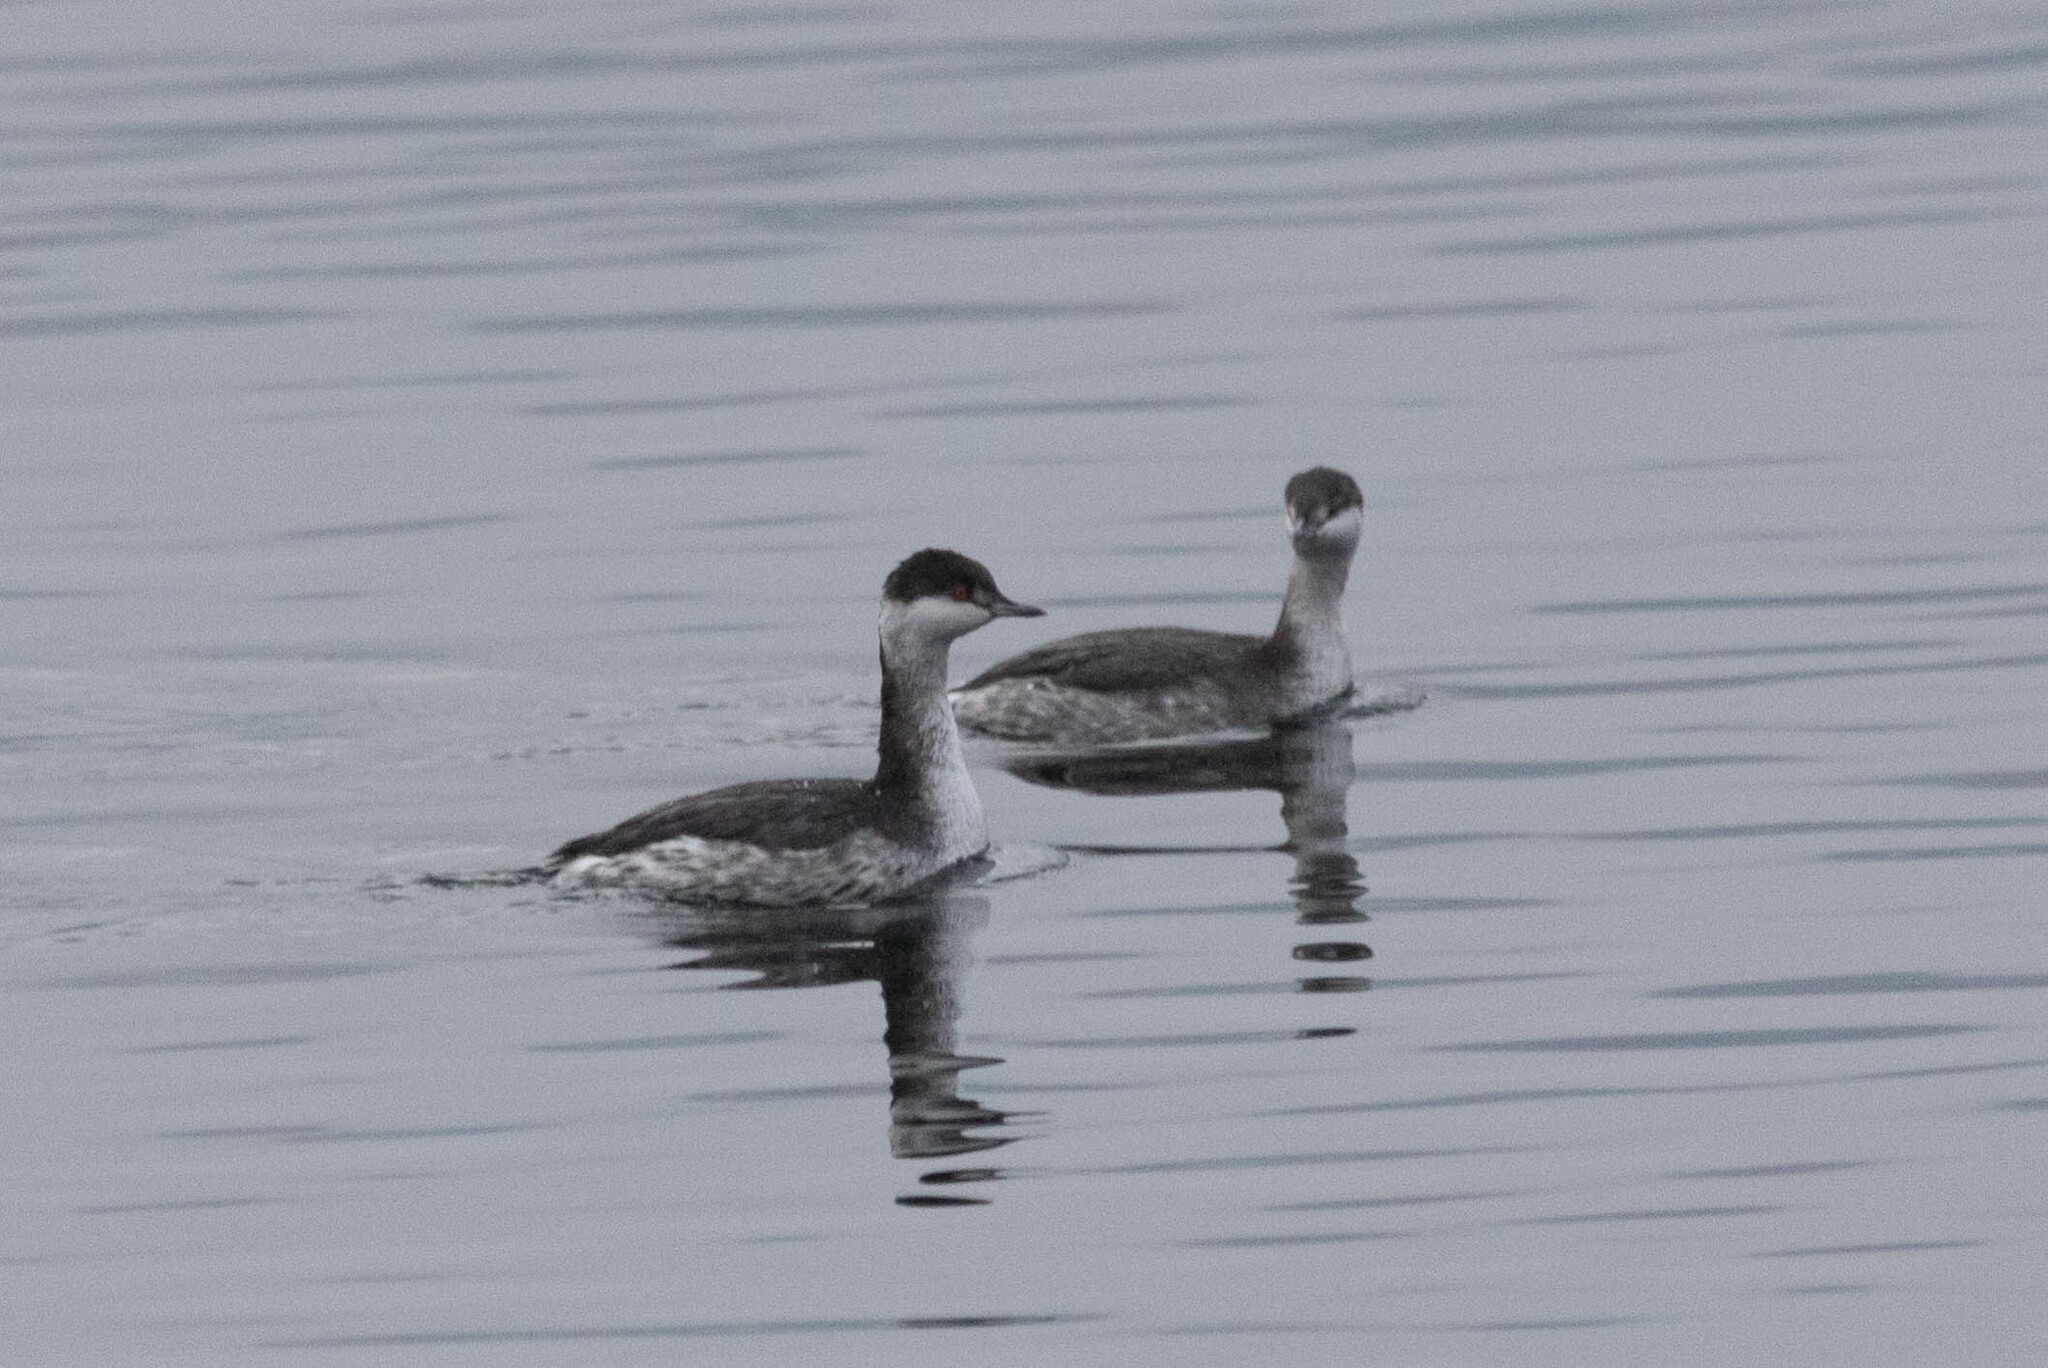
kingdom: Animalia
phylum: Chordata
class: Aves
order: Podicipediformes
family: Podicipedidae
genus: Podiceps
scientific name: Podiceps auritus
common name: Horned grebe
